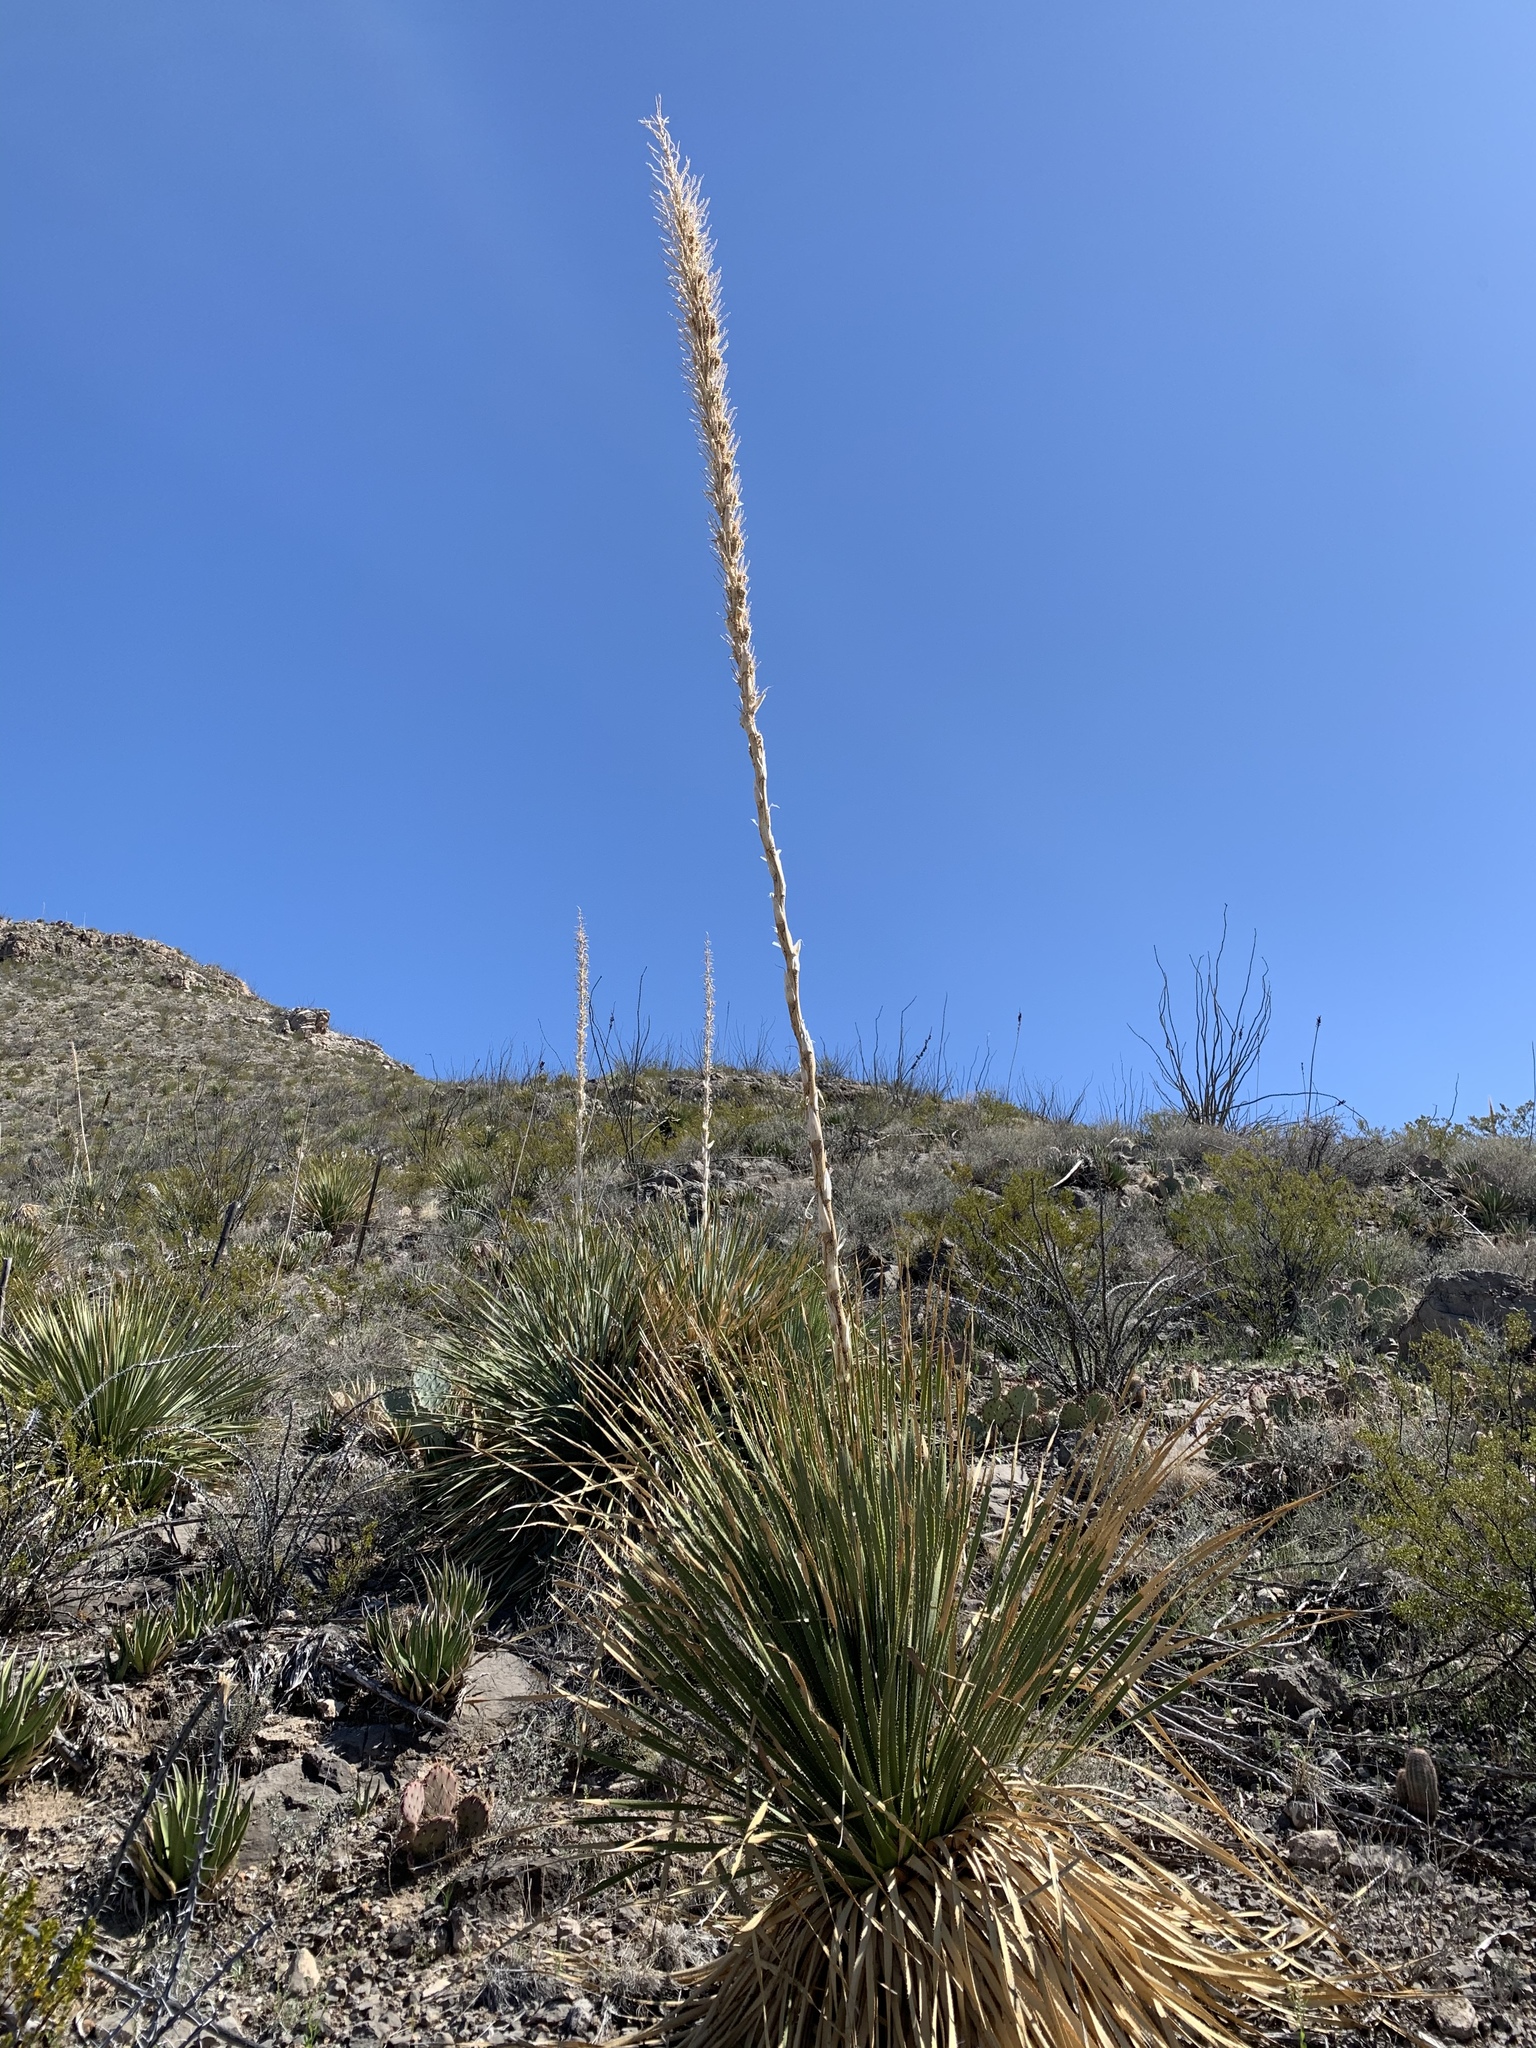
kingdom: Plantae
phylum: Tracheophyta
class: Liliopsida
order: Asparagales
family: Asparagaceae
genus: Dasylirion
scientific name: Dasylirion wheeleri
